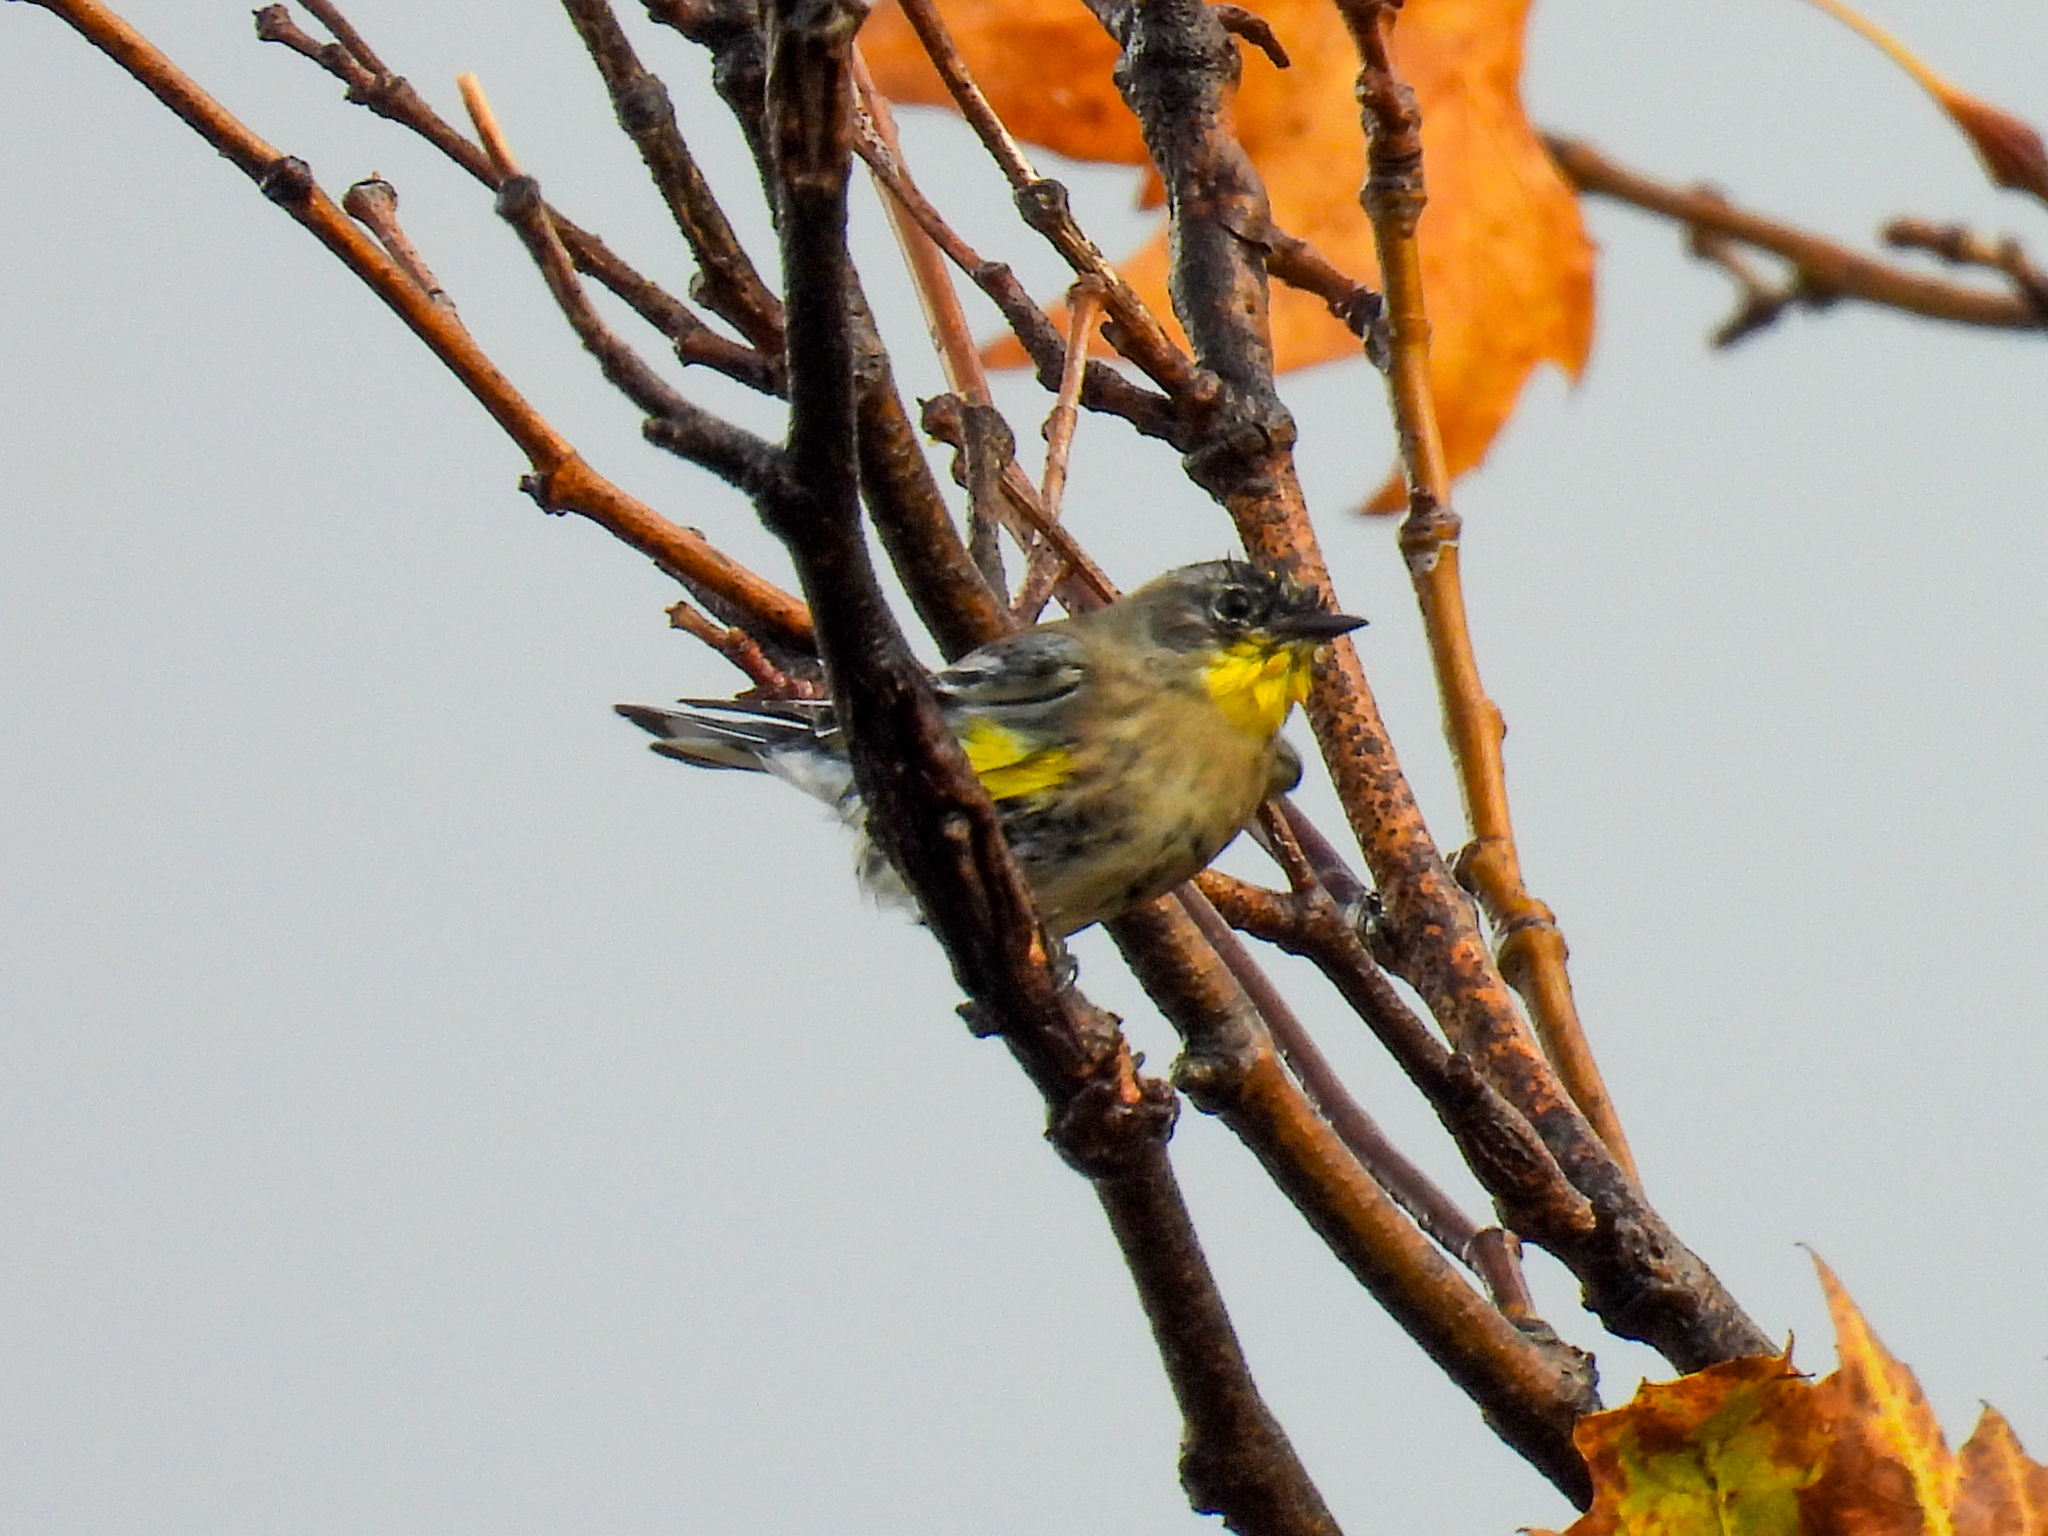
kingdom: Animalia
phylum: Chordata
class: Aves
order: Passeriformes
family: Parulidae
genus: Setophaga
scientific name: Setophaga coronata
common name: Myrtle warbler
